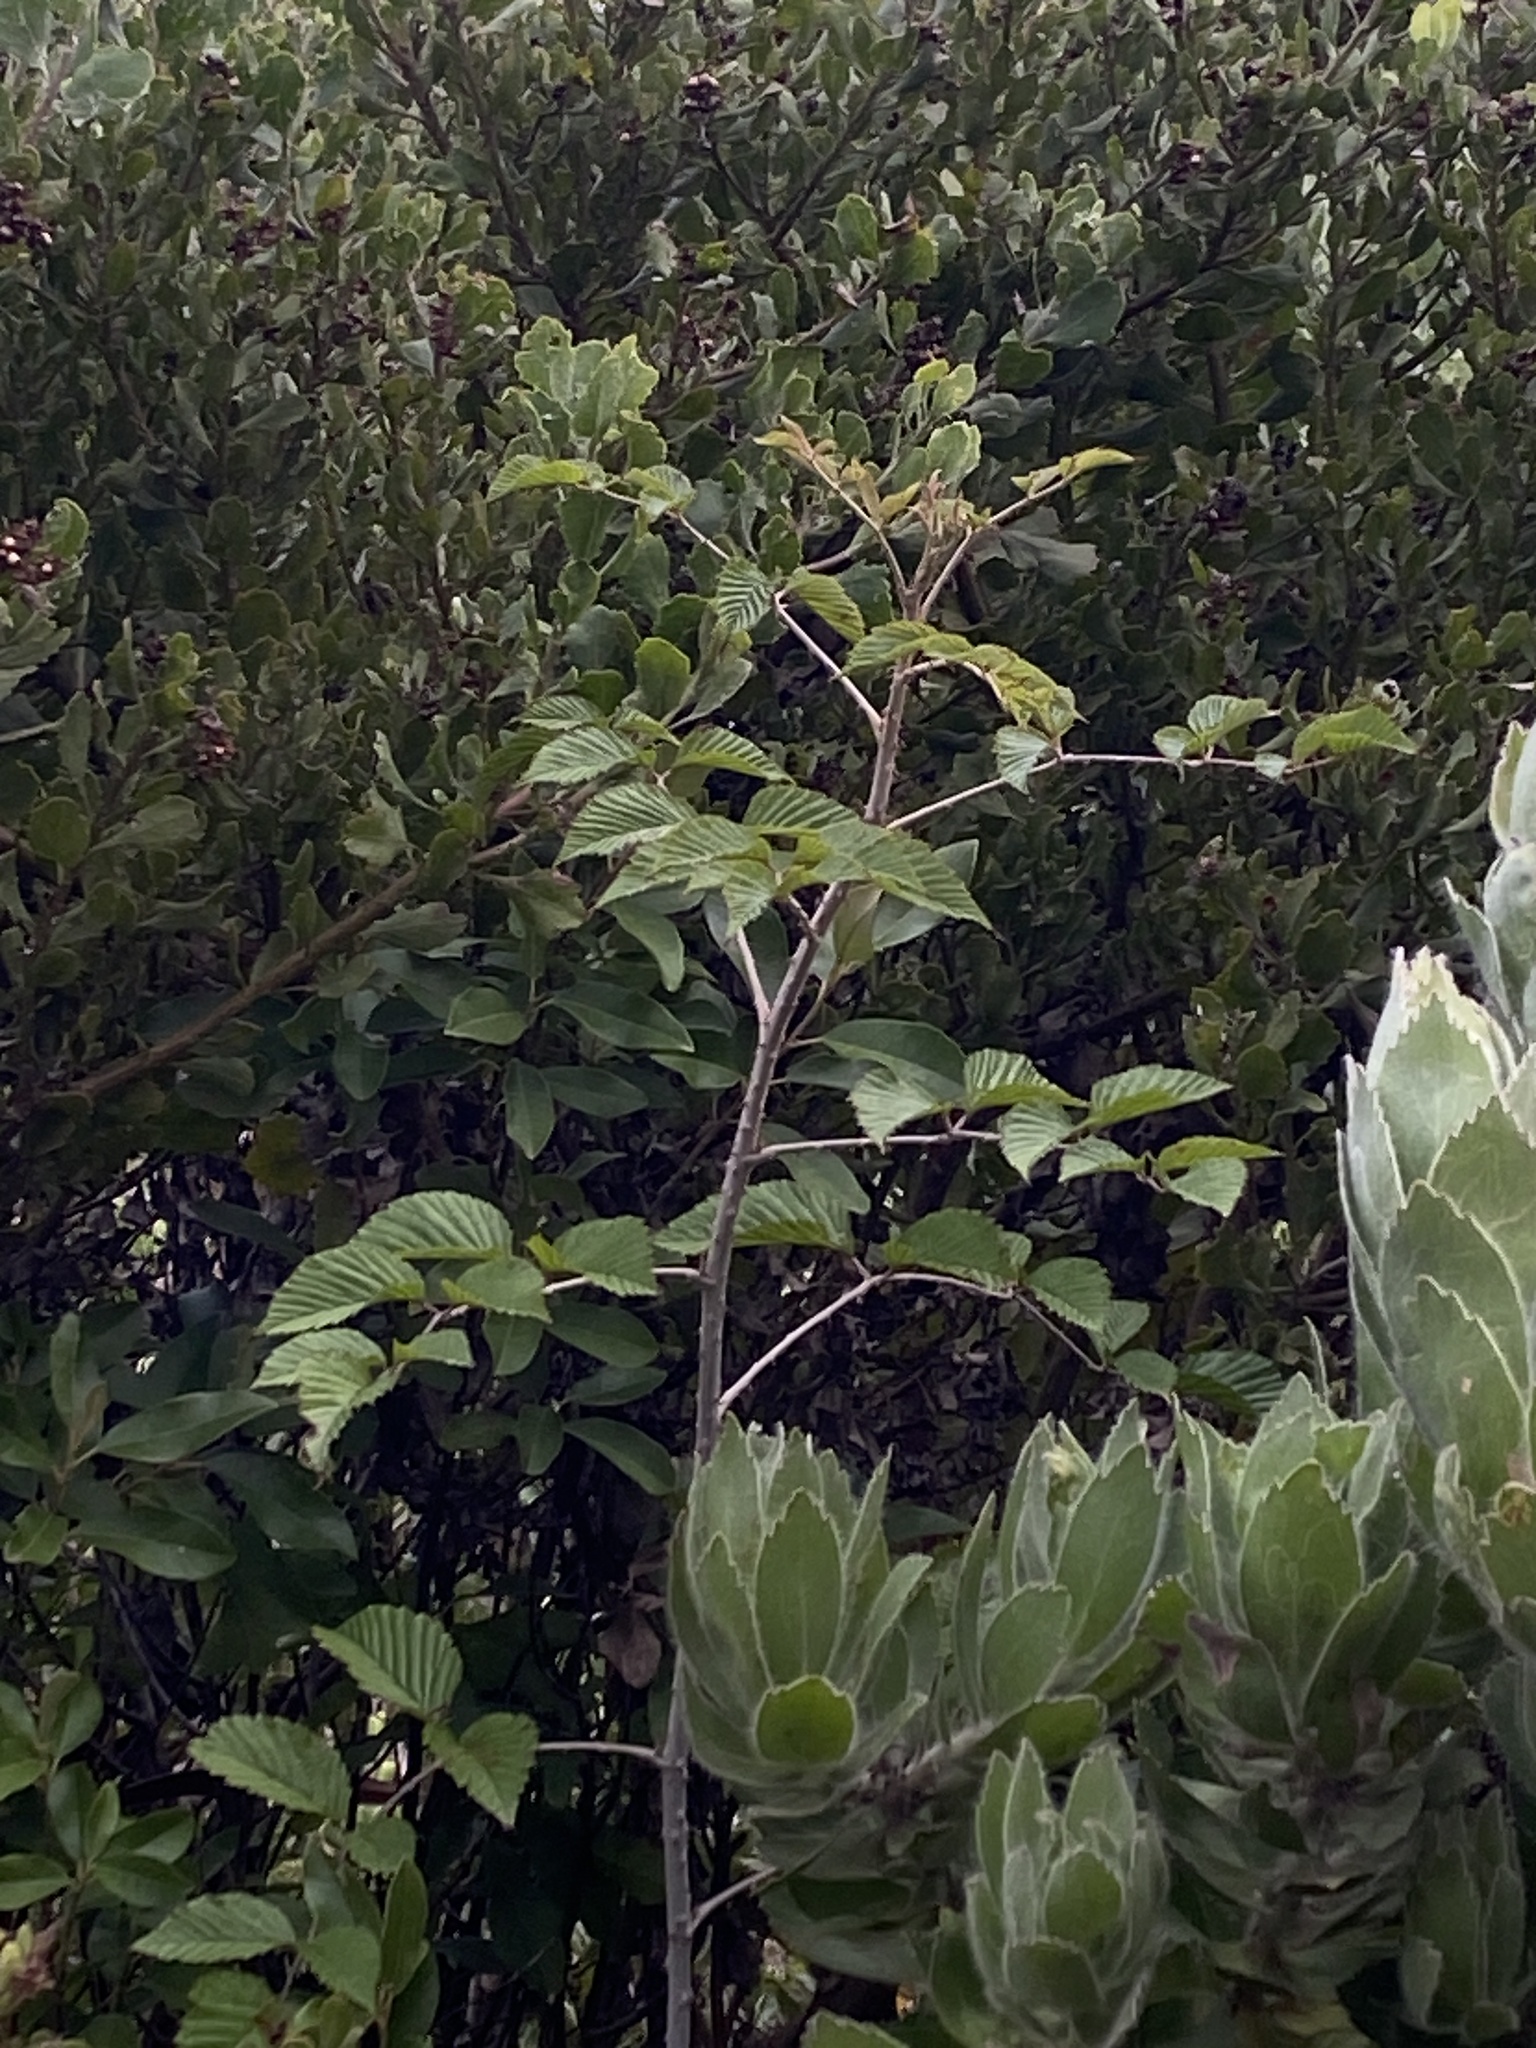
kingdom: Plantae
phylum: Tracheophyta
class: Magnoliopsida
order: Rosales
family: Rosaceae
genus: Rubus
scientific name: Rubus pinnatus
